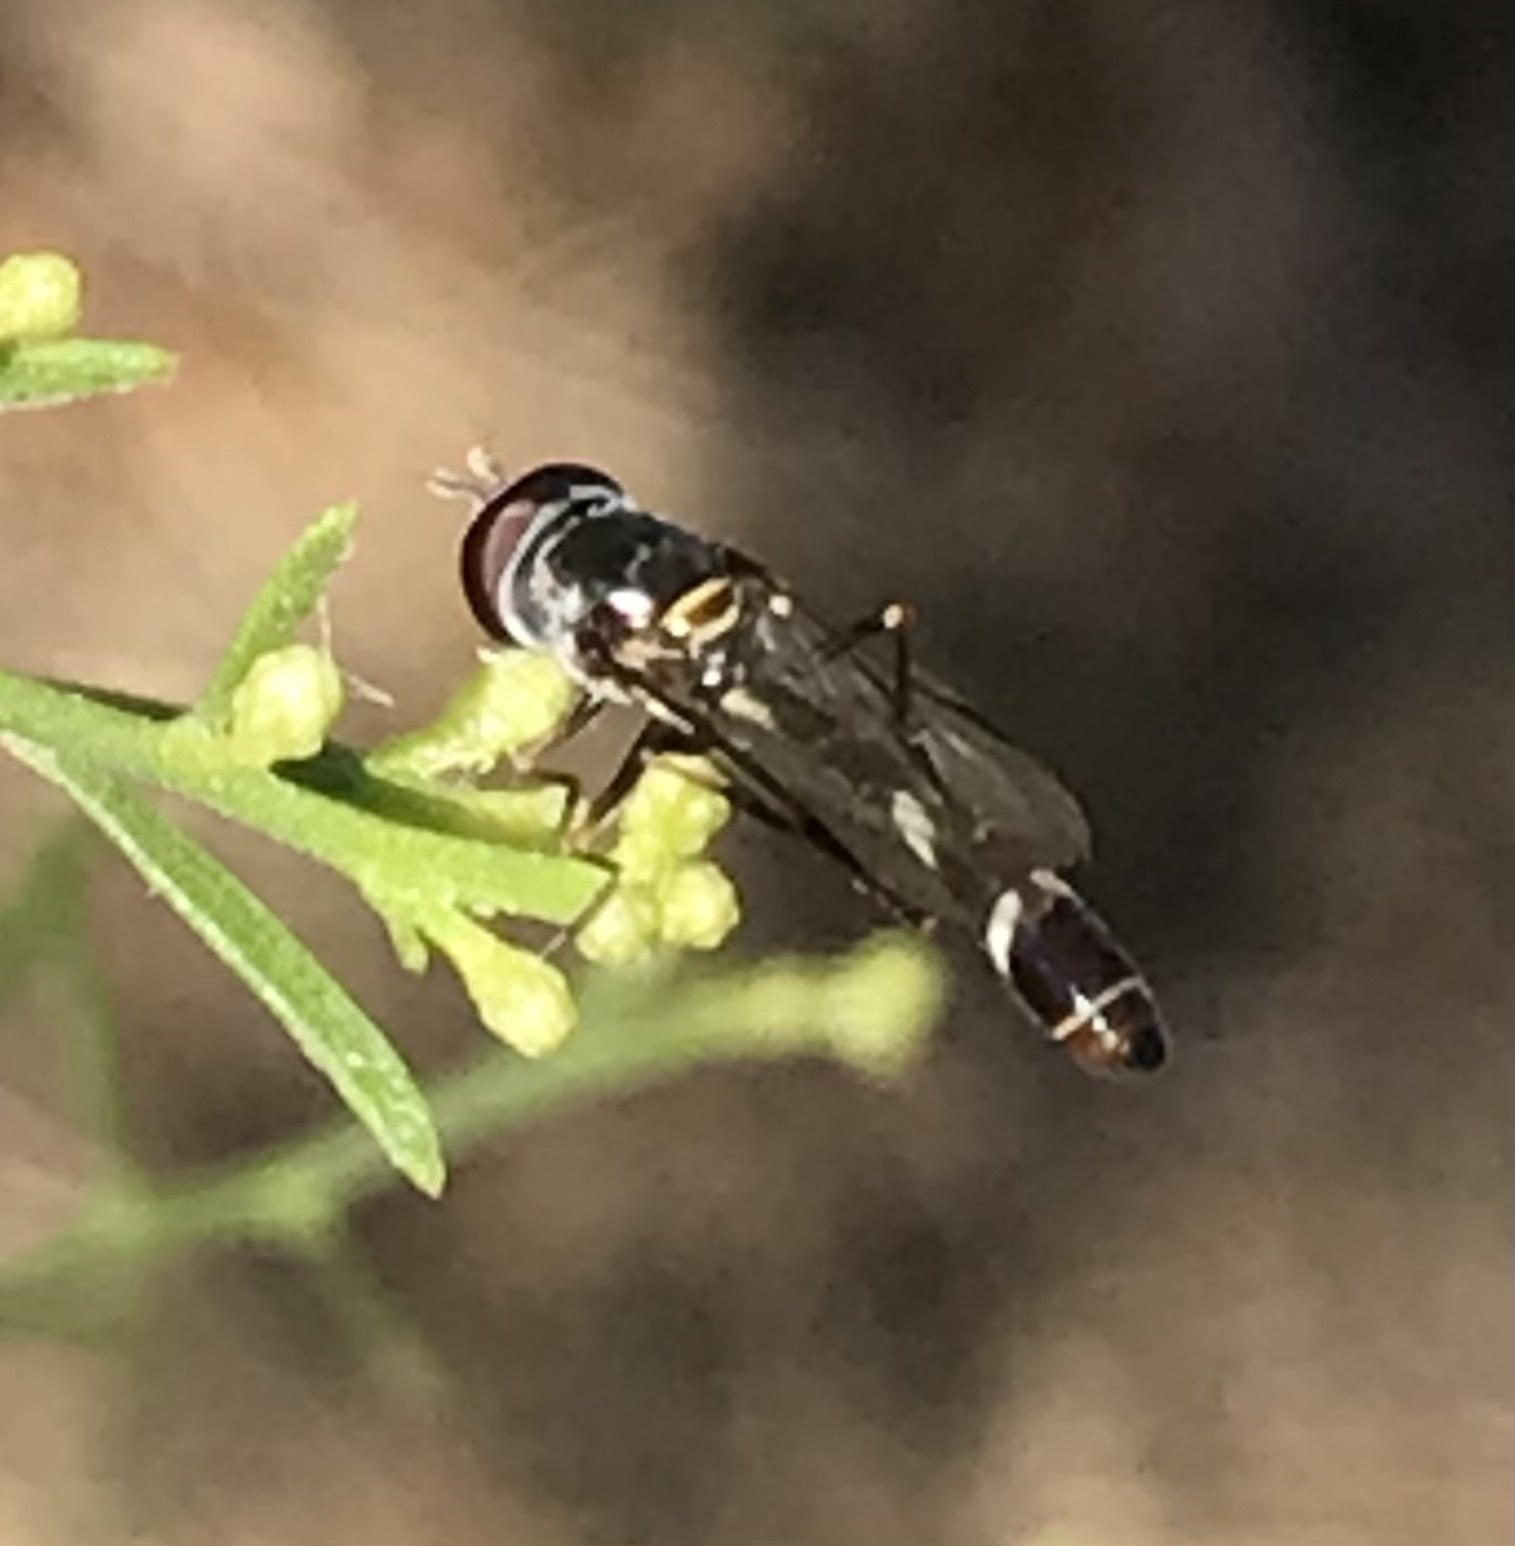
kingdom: Animalia
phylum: Arthropoda
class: Insecta
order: Diptera
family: Syrphidae
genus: Dioprosopa
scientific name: Dioprosopa clavatus
